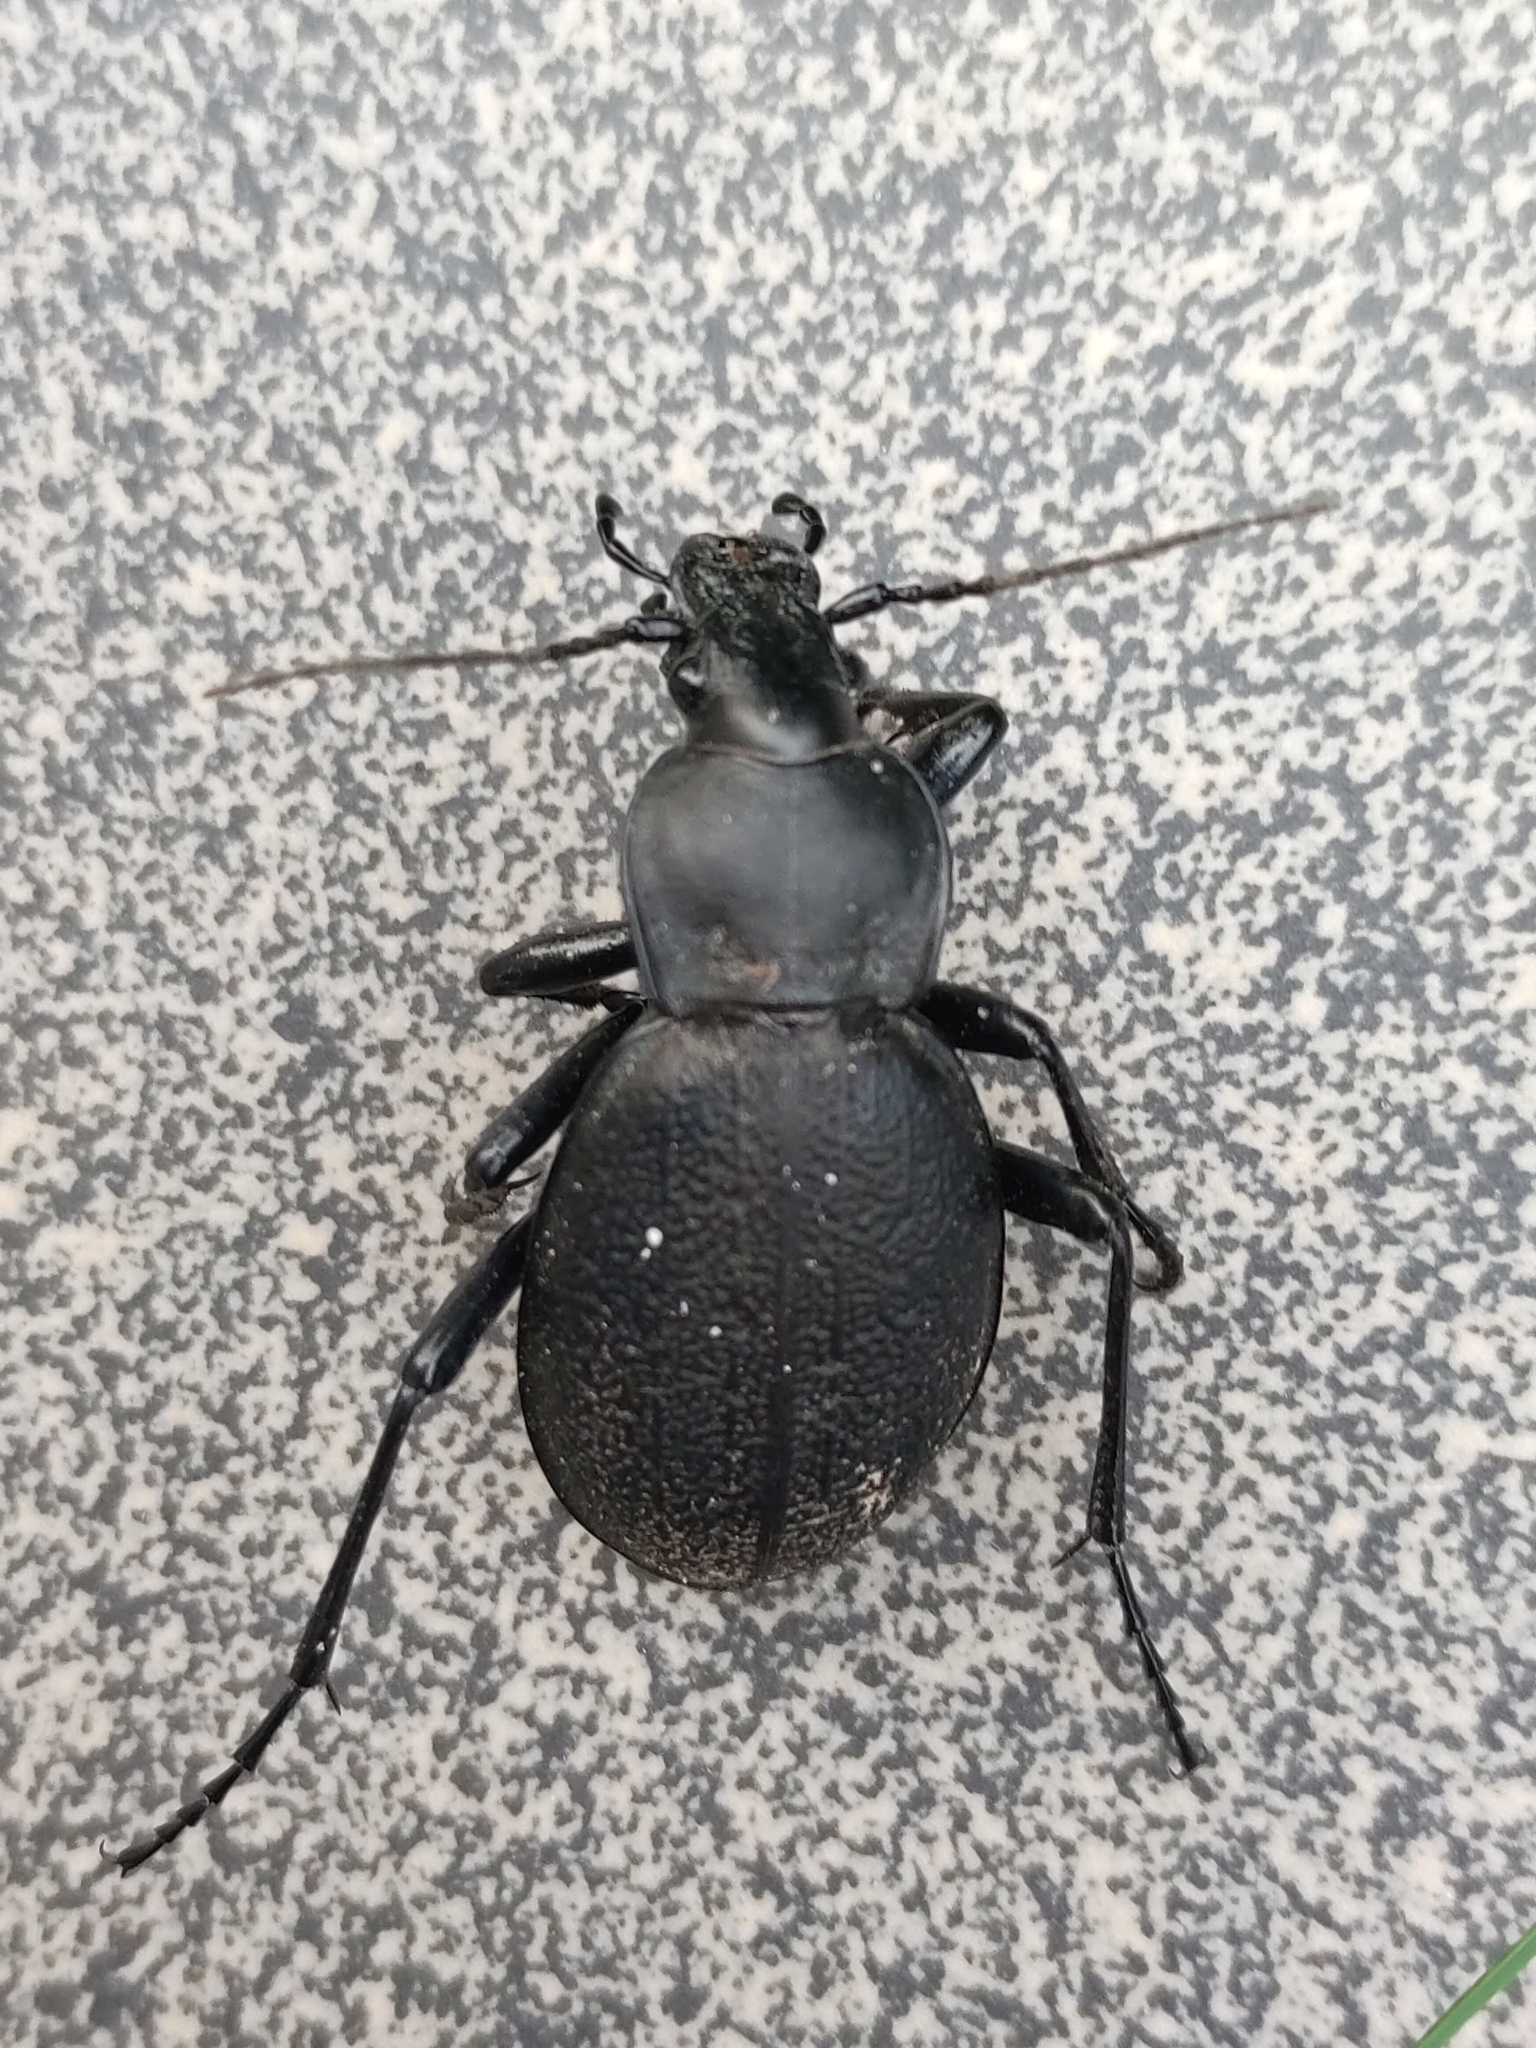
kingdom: Animalia
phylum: Arthropoda
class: Insecta
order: Coleoptera
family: Carabidae
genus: Carabus
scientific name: Carabus coriaceus
